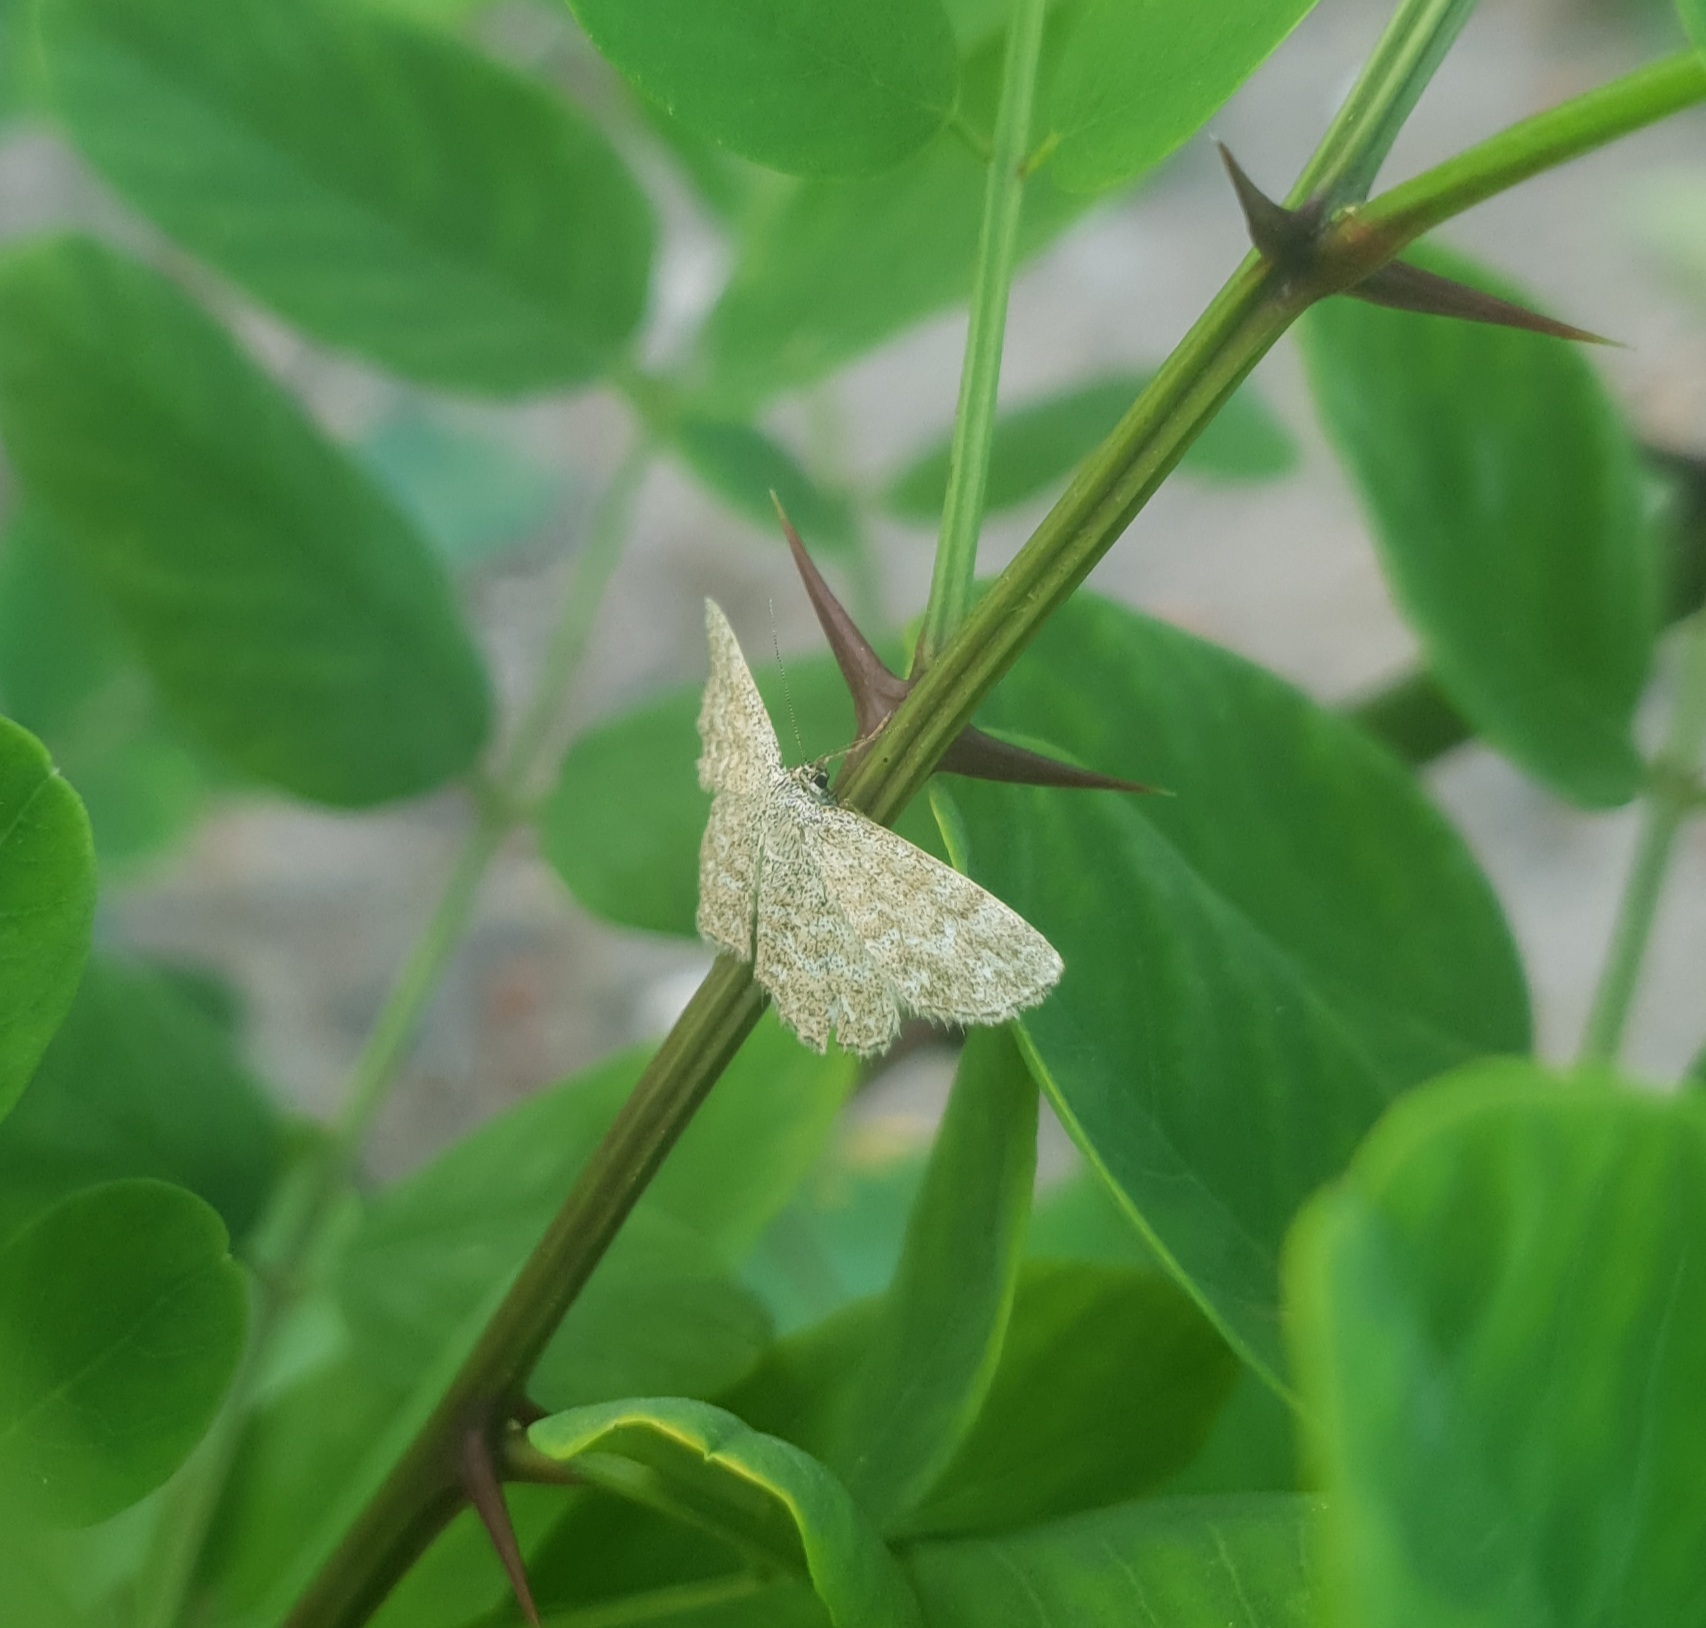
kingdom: Animalia
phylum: Arthropoda
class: Insecta
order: Lepidoptera
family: Geometridae
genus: Scopula
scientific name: Scopula immorata
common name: Lewes wave
